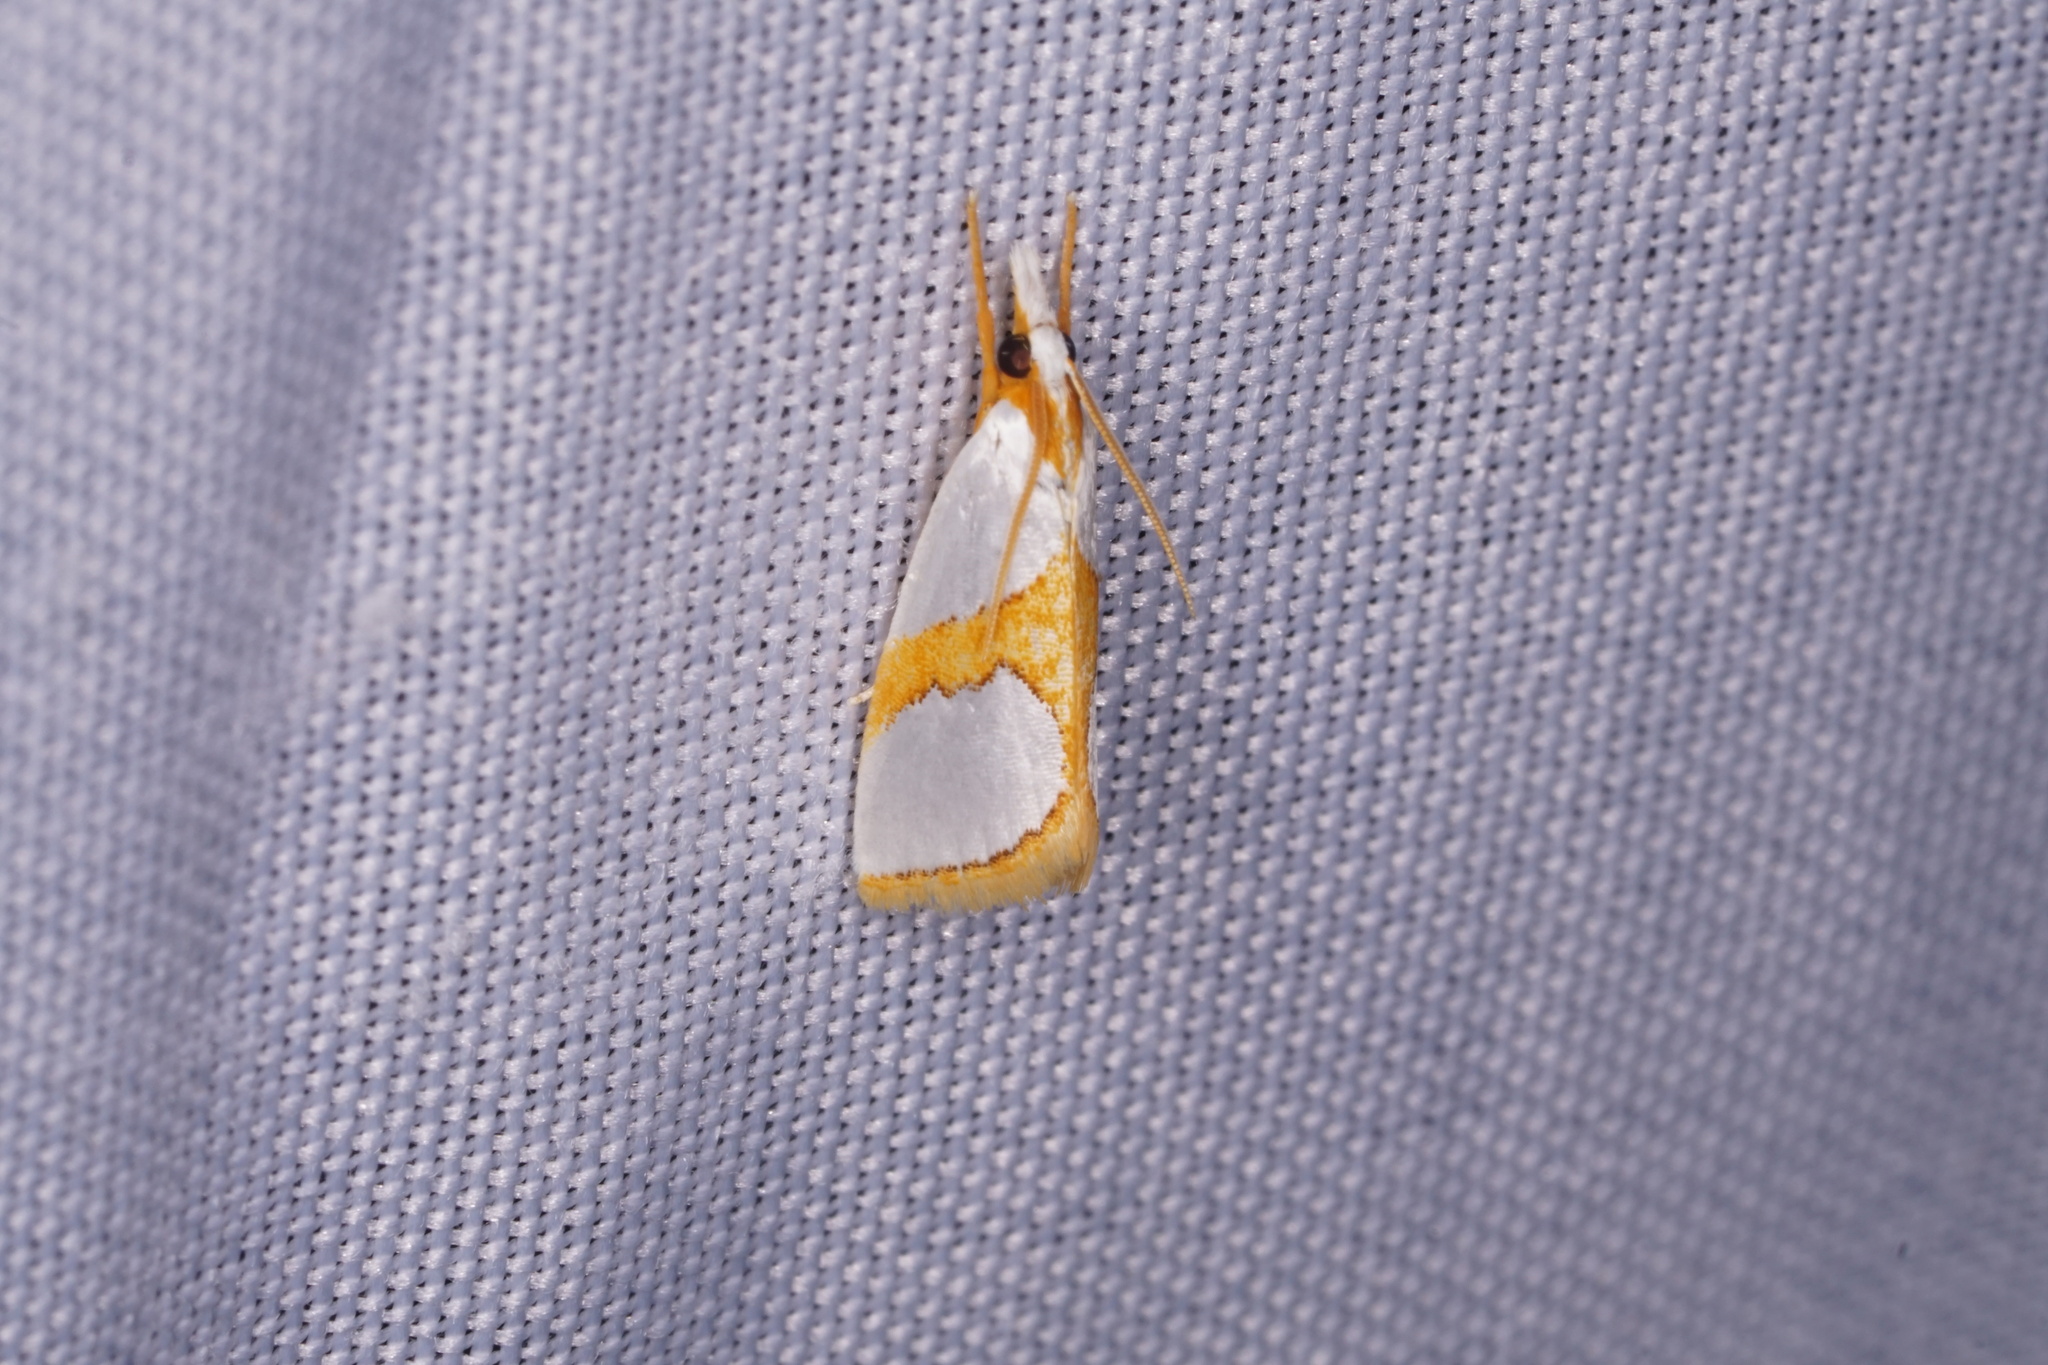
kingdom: Animalia
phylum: Arthropoda
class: Insecta
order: Lepidoptera
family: Crambidae
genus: Argyria
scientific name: Argyria auratella
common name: Curve-lined argyria moth
